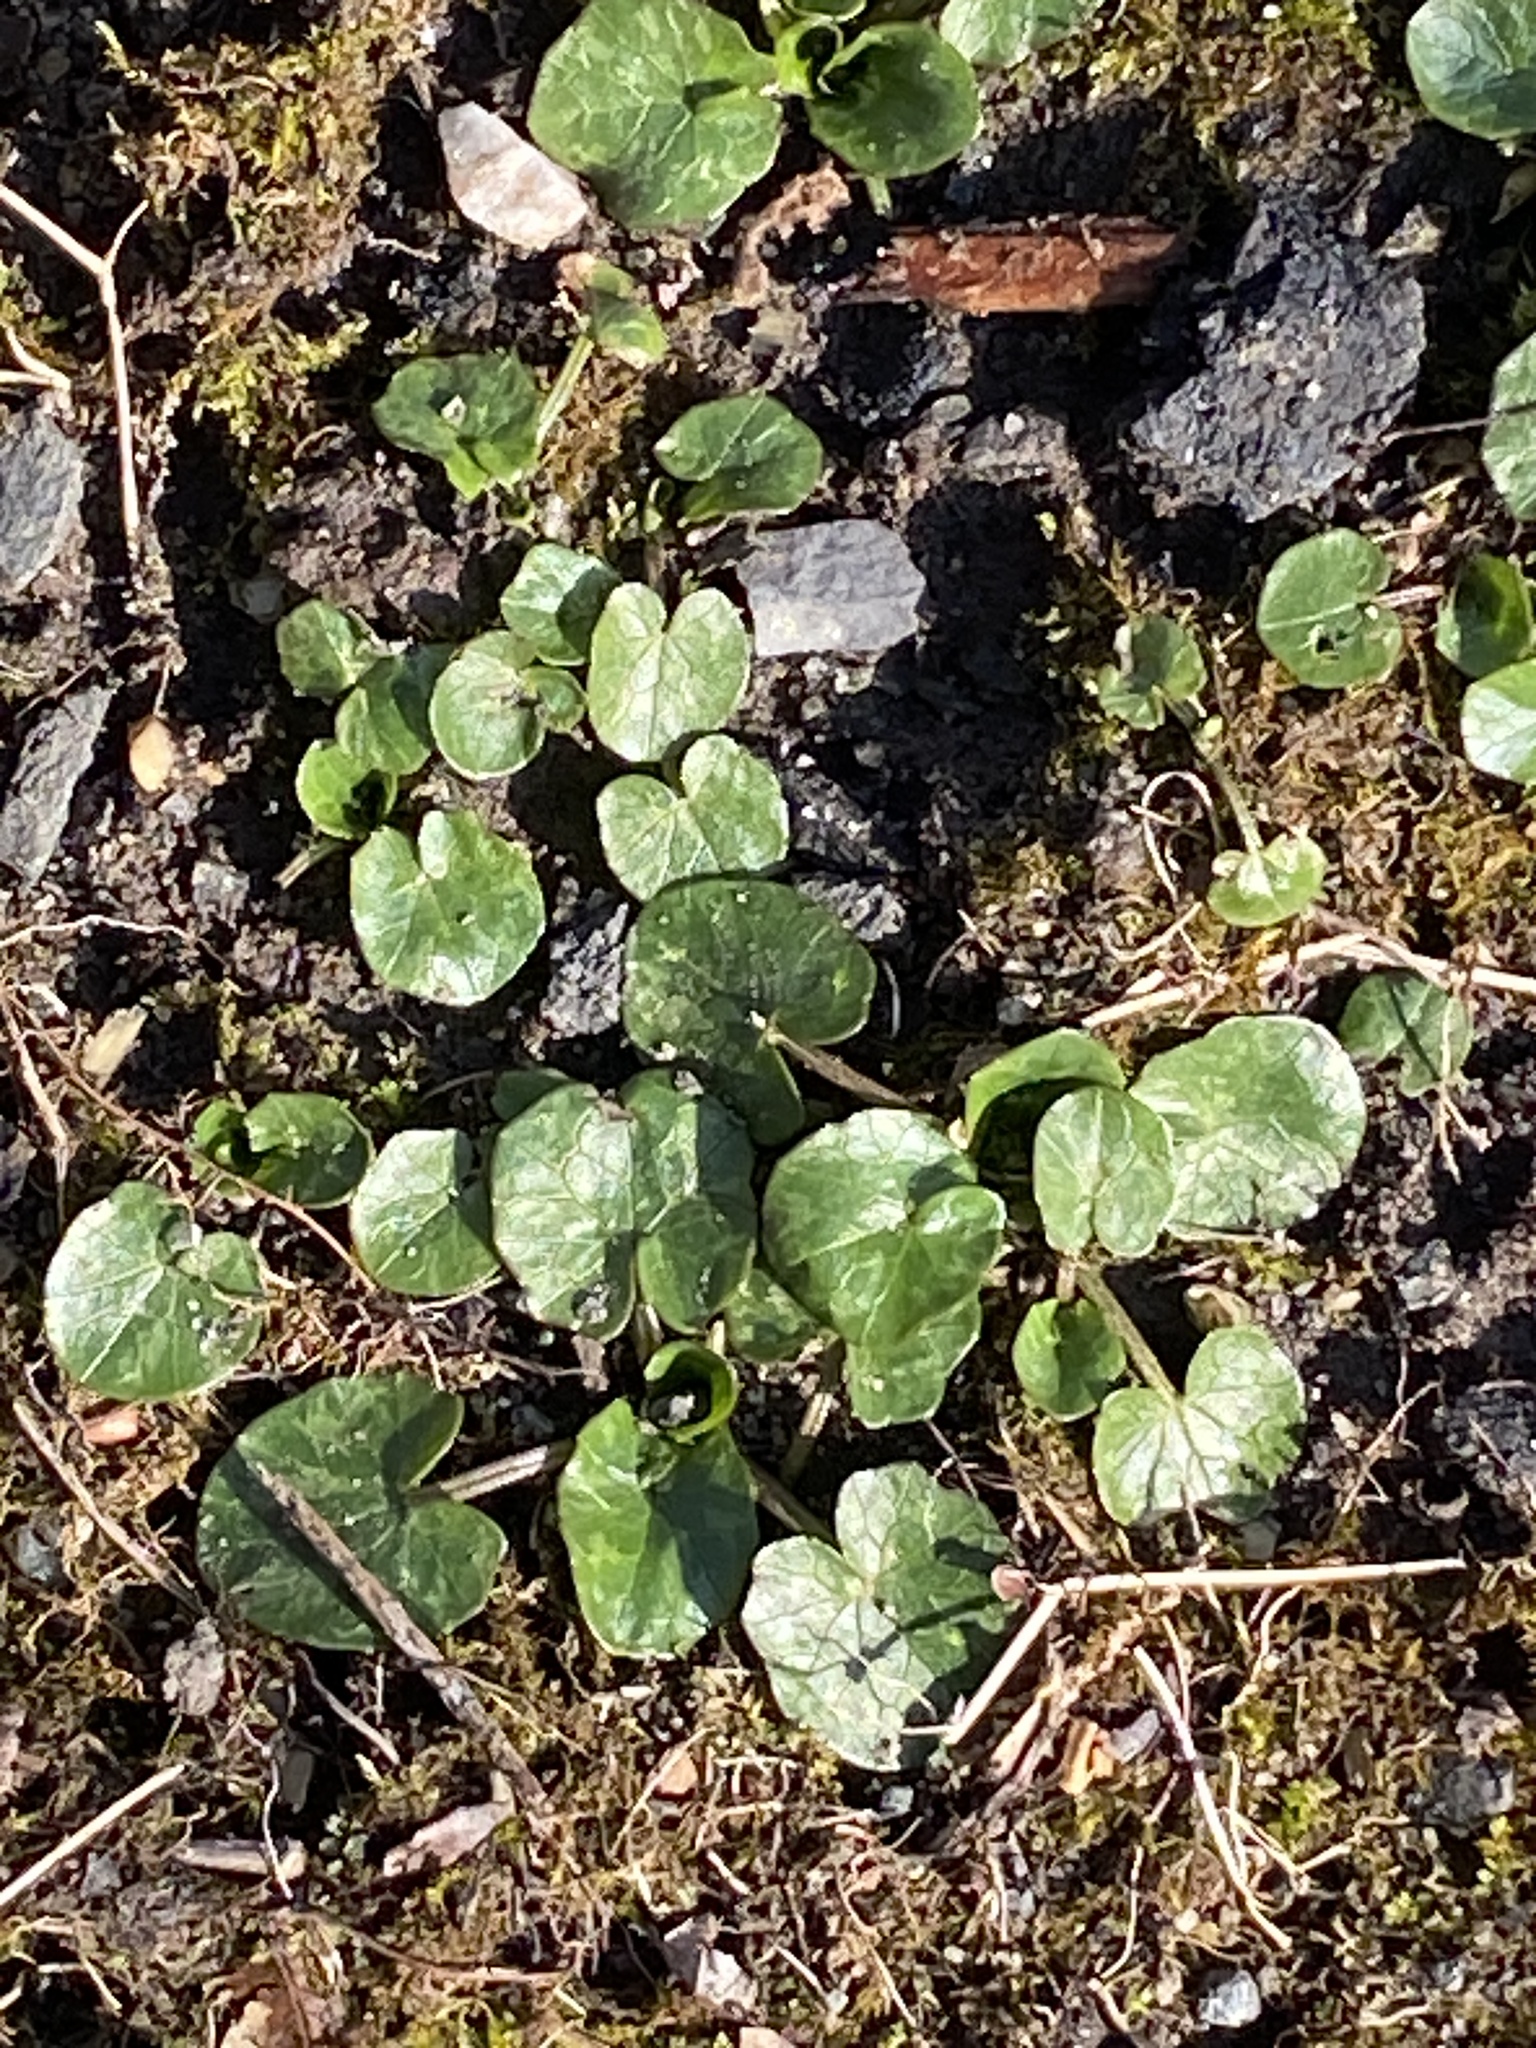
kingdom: Plantae
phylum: Tracheophyta
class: Magnoliopsida
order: Ranunculales
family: Ranunculaceae
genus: Ficaria
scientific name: Ficaria verna
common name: Lesser celandine
